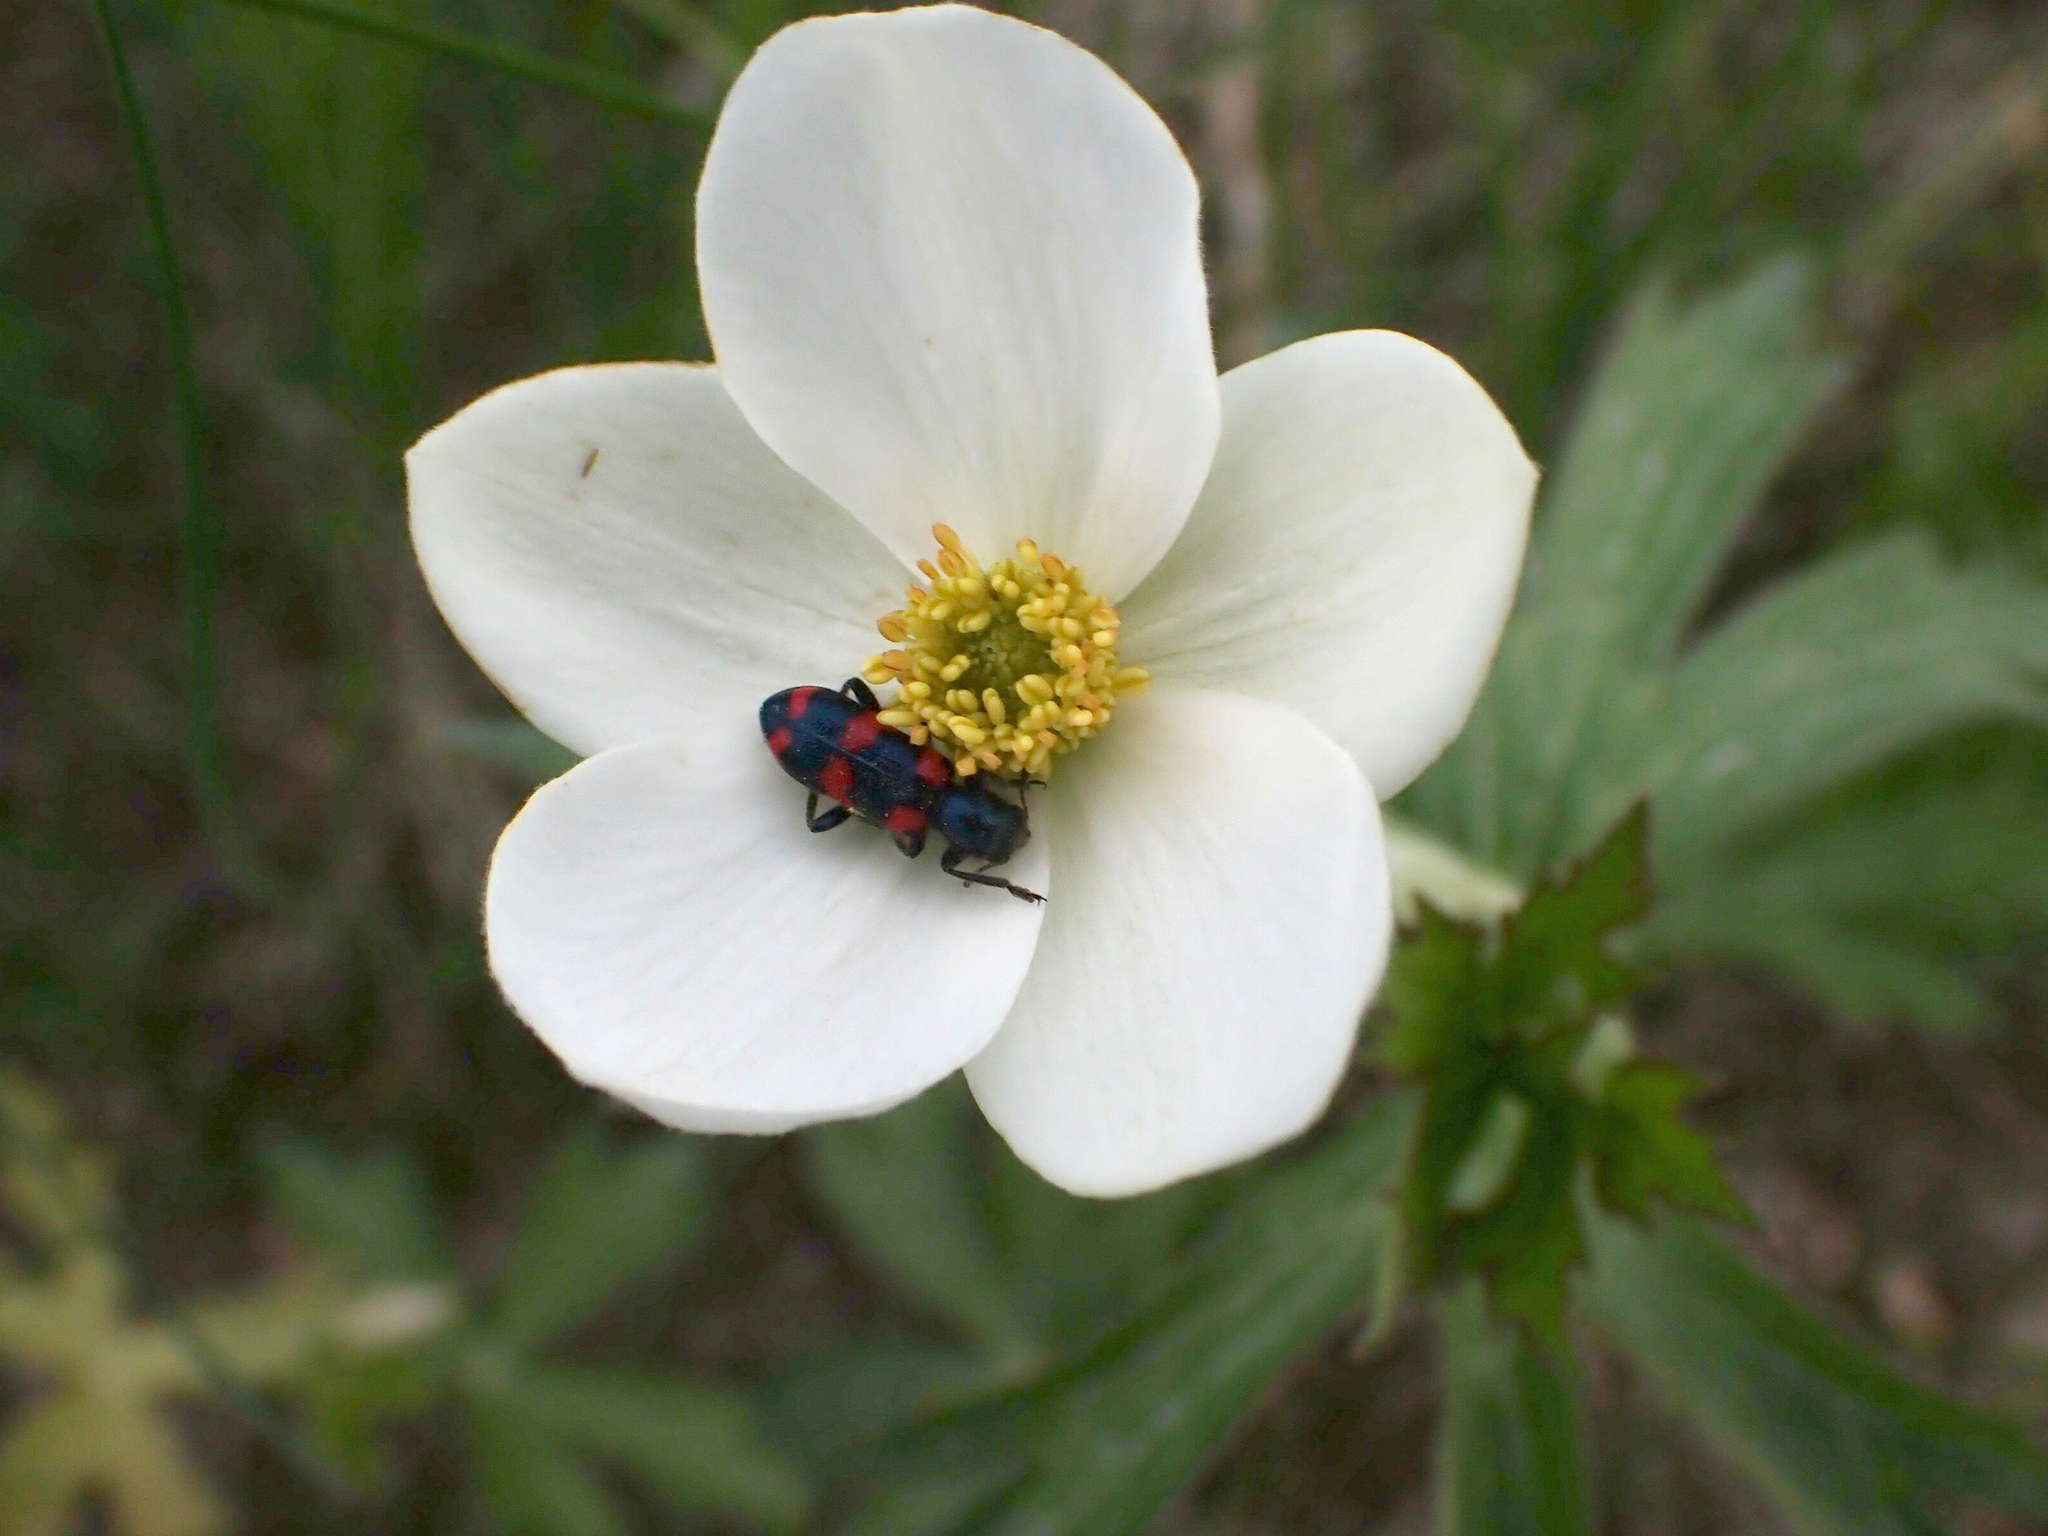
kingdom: Plantae
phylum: Tracheophyta
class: Magnoliopsida
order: Ranunculales
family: Ranunculaceae
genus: Anemonastrum
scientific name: Anemonastrum canadense
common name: Canada anemone
